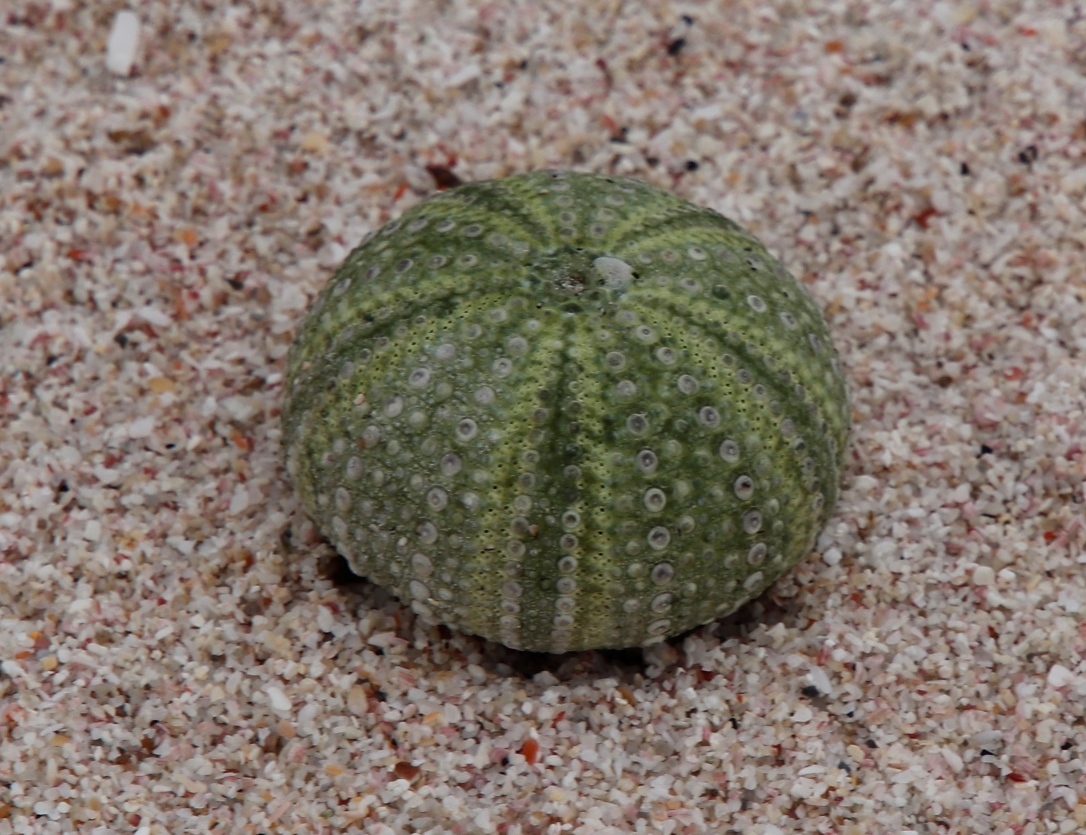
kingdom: Animalia
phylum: Echinodermata
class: Echinoidea
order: Camarodonta
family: Parechinidae
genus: Parechinus
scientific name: Parechinus angulosus
